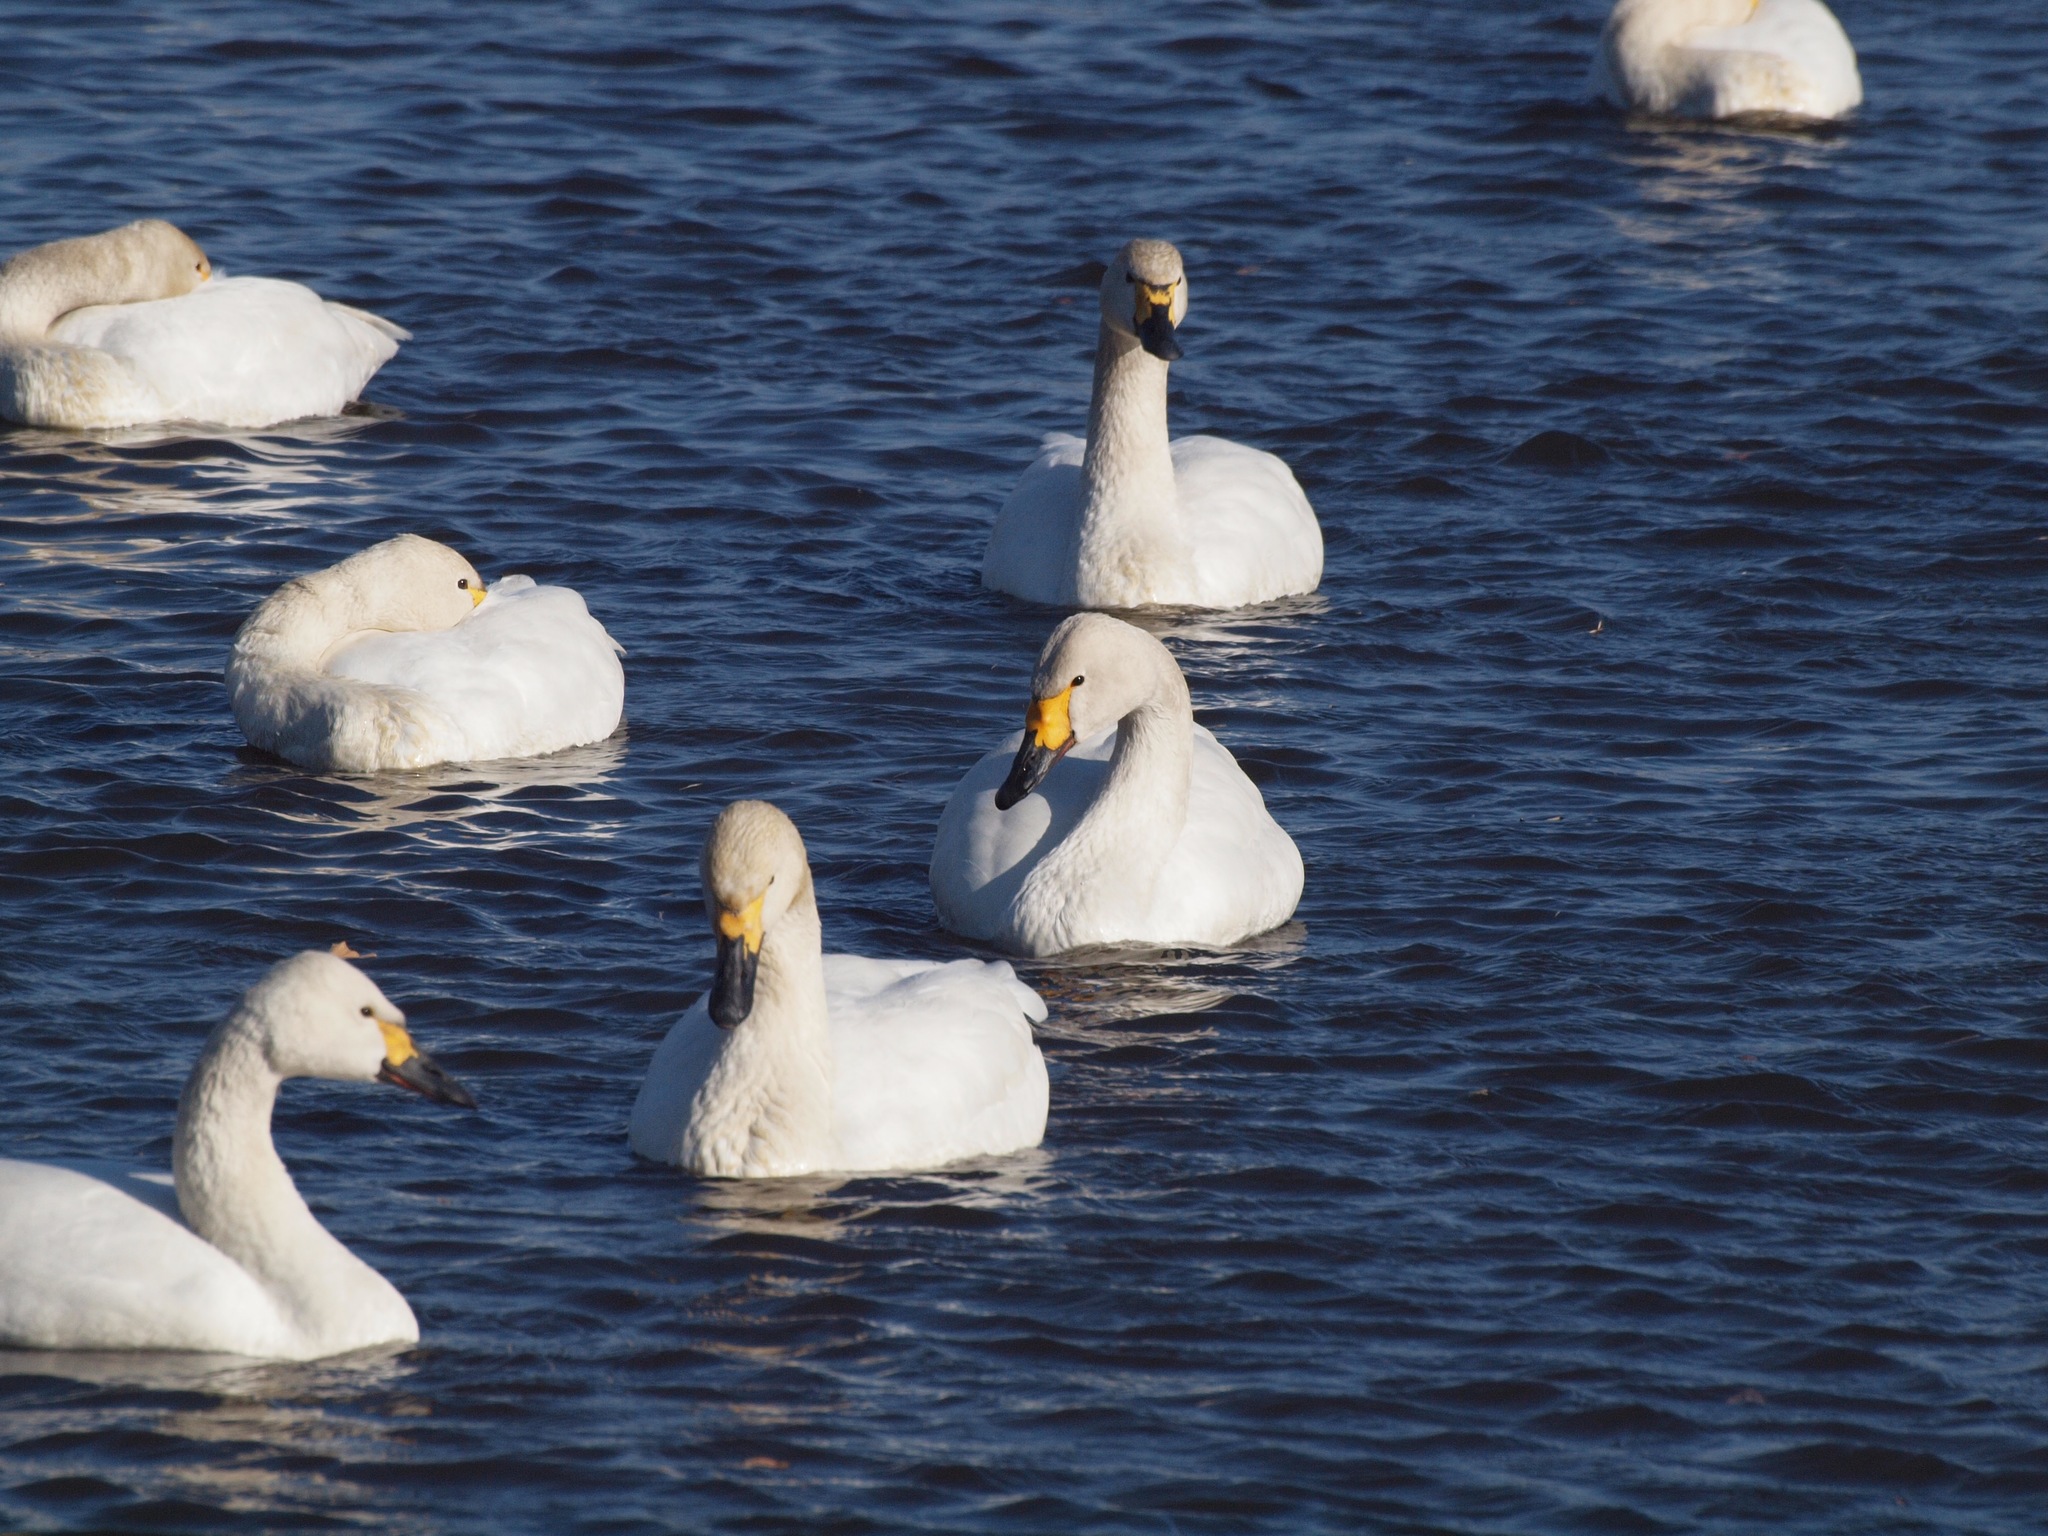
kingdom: Animalia
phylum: Chordata
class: Aves
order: Anseriformes
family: Anatidae
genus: Cygnus
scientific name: Cygnus columbianus
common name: Tundra swan
